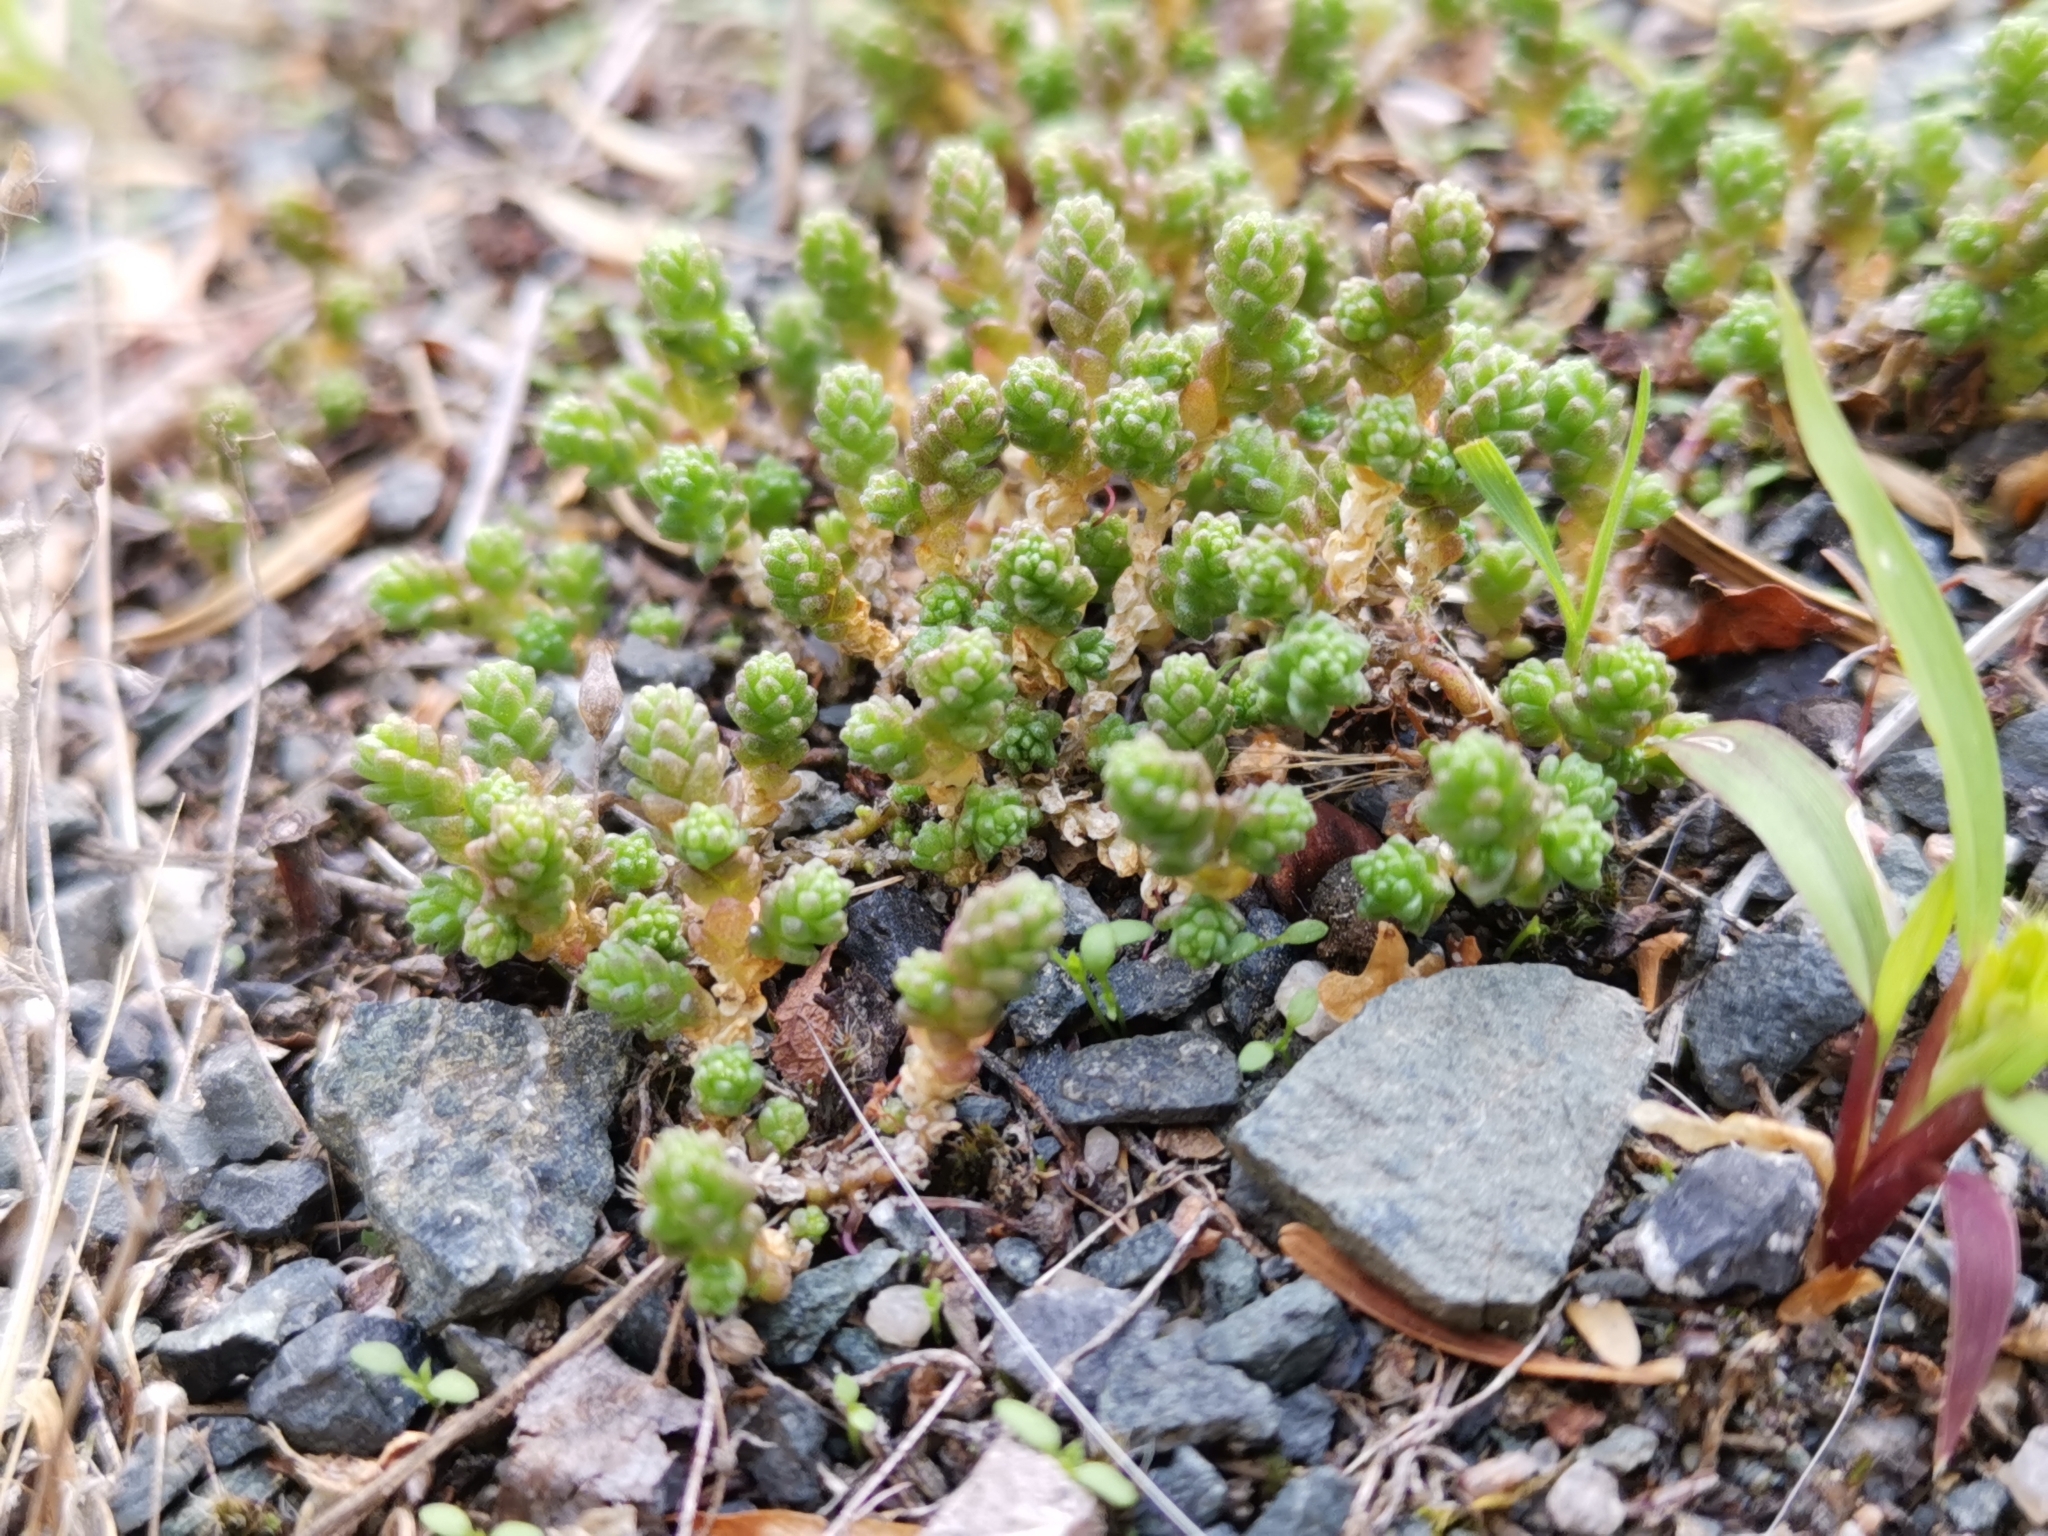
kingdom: Plantae
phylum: Tracheophyta
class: Magnoliopsida
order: Saxifragales
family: Crassulaceae
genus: Sedum
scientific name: Sedum acre
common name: Biting stonecrop
